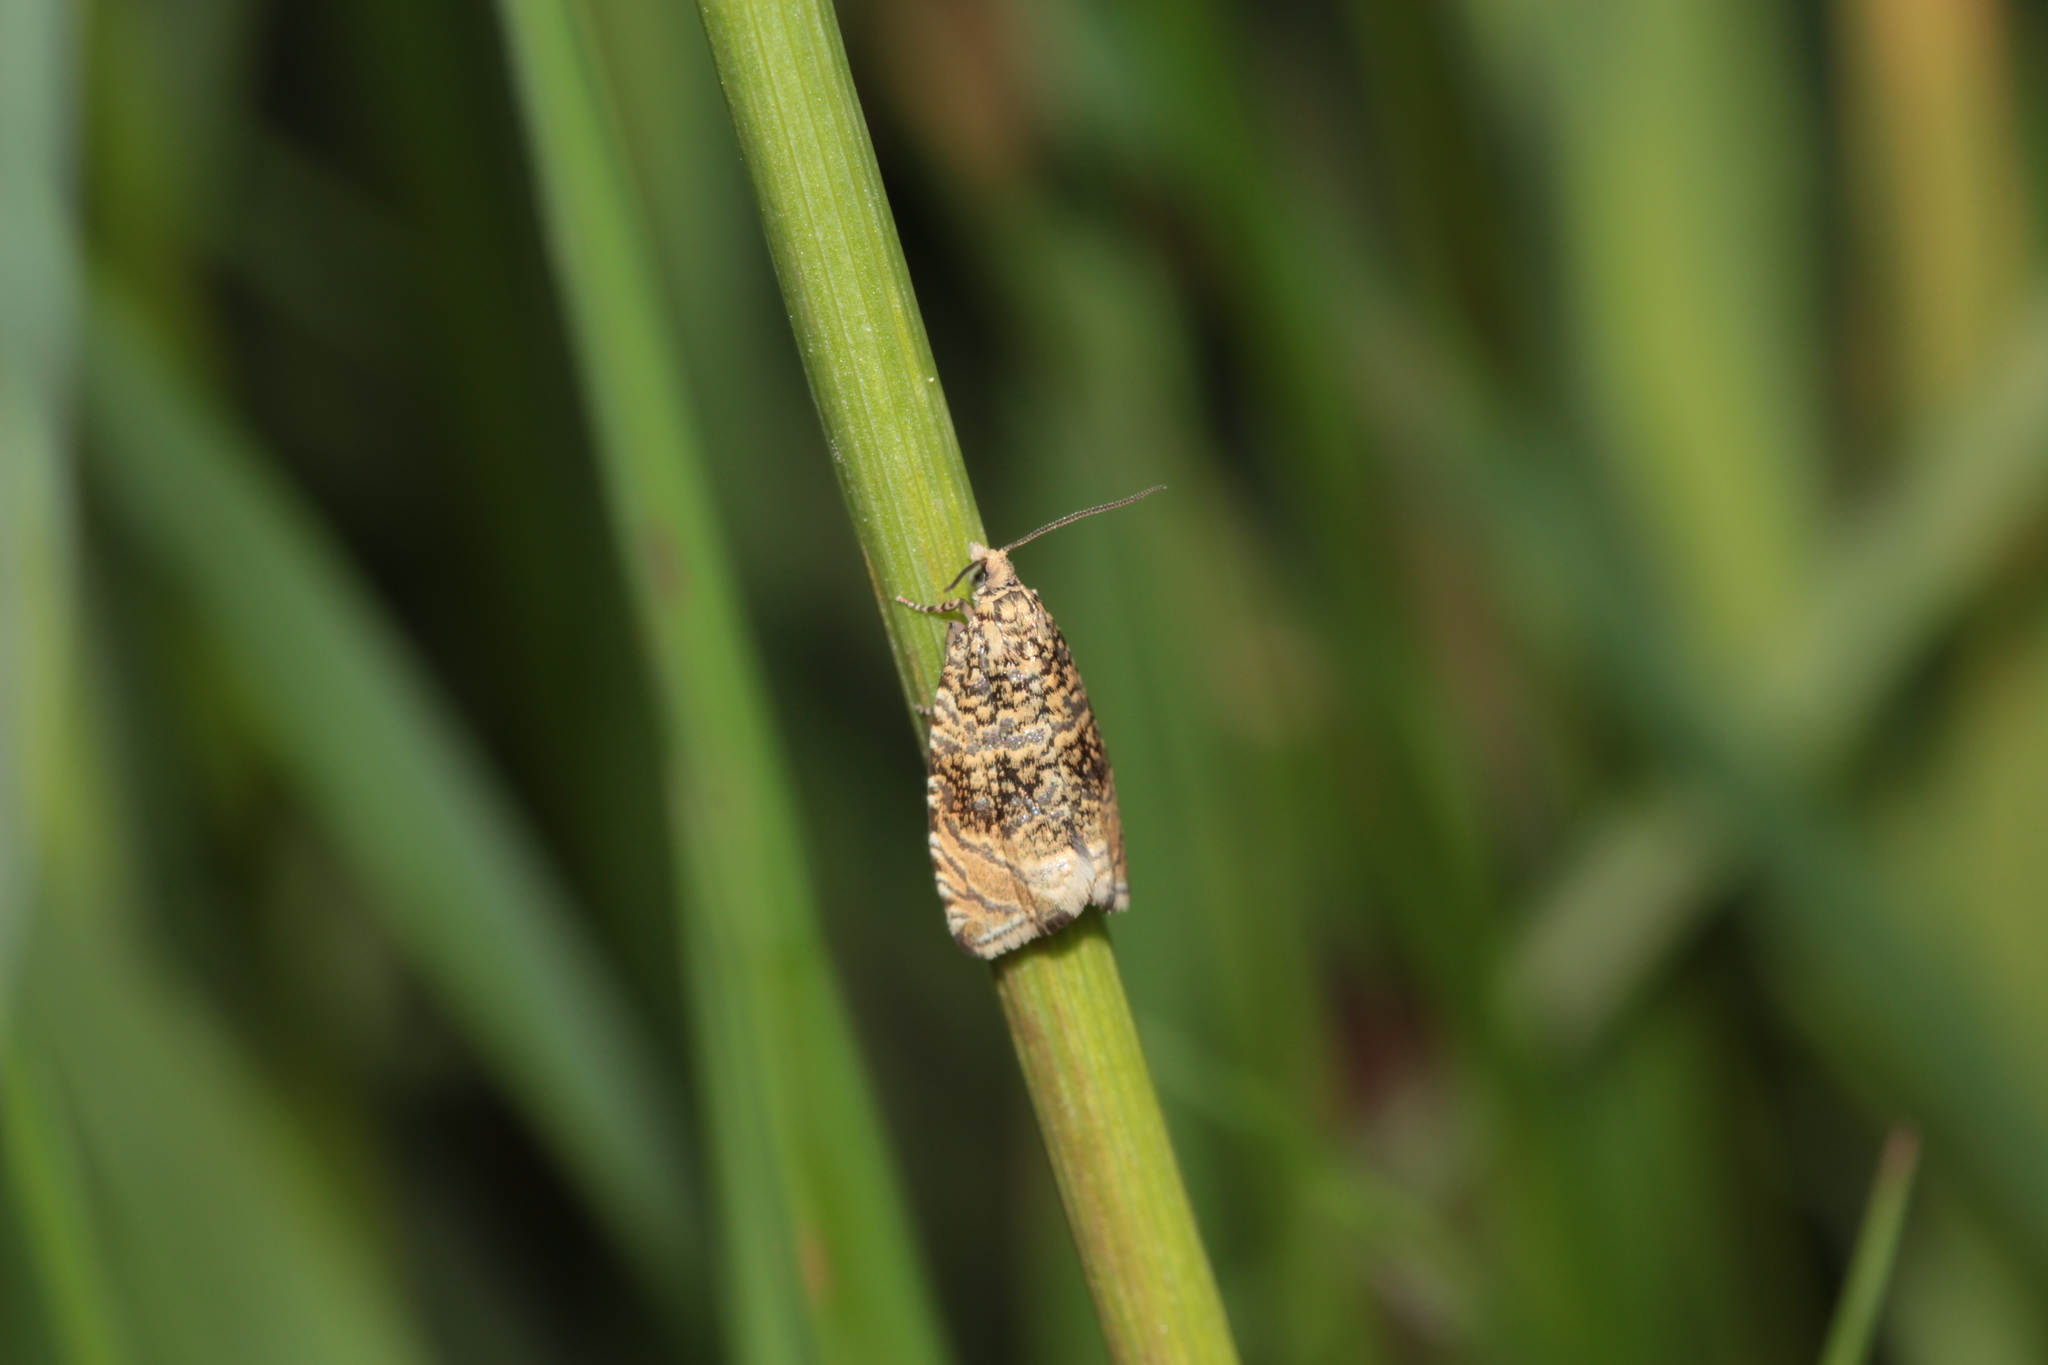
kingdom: Animalia
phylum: Arthropoda
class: Insecta
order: Lepidoptera
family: Tortricidae
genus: Syricoris
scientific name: Syricoris lacunana
